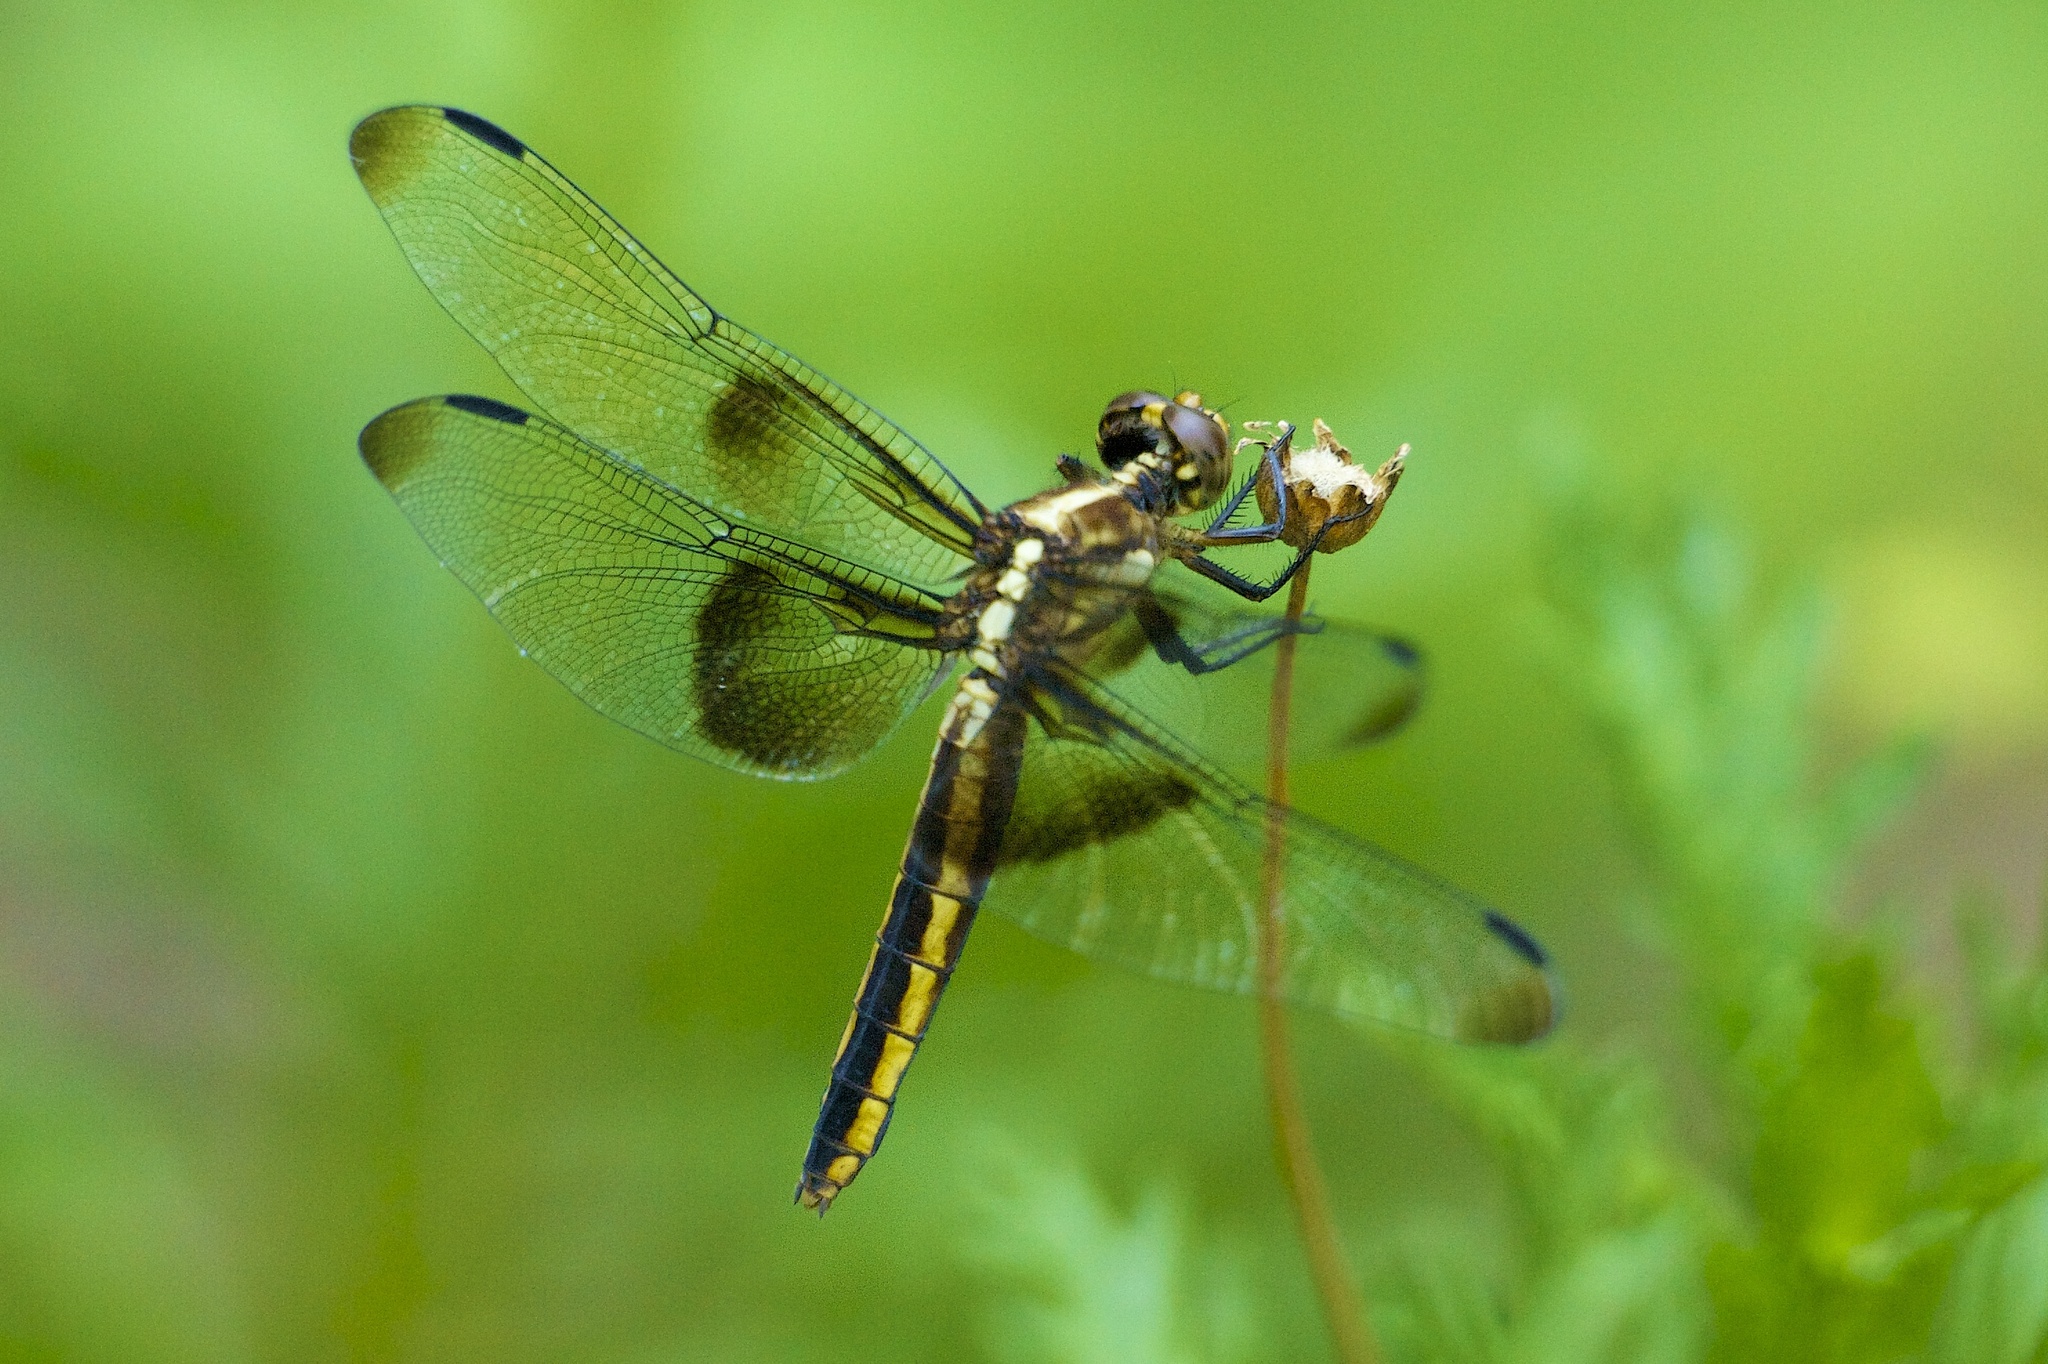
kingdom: Animalia
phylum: Arthropoda
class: Insecta
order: Odonata
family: Libellulidae
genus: Libellula
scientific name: Libellula luctuosa
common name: Widow skimmer
